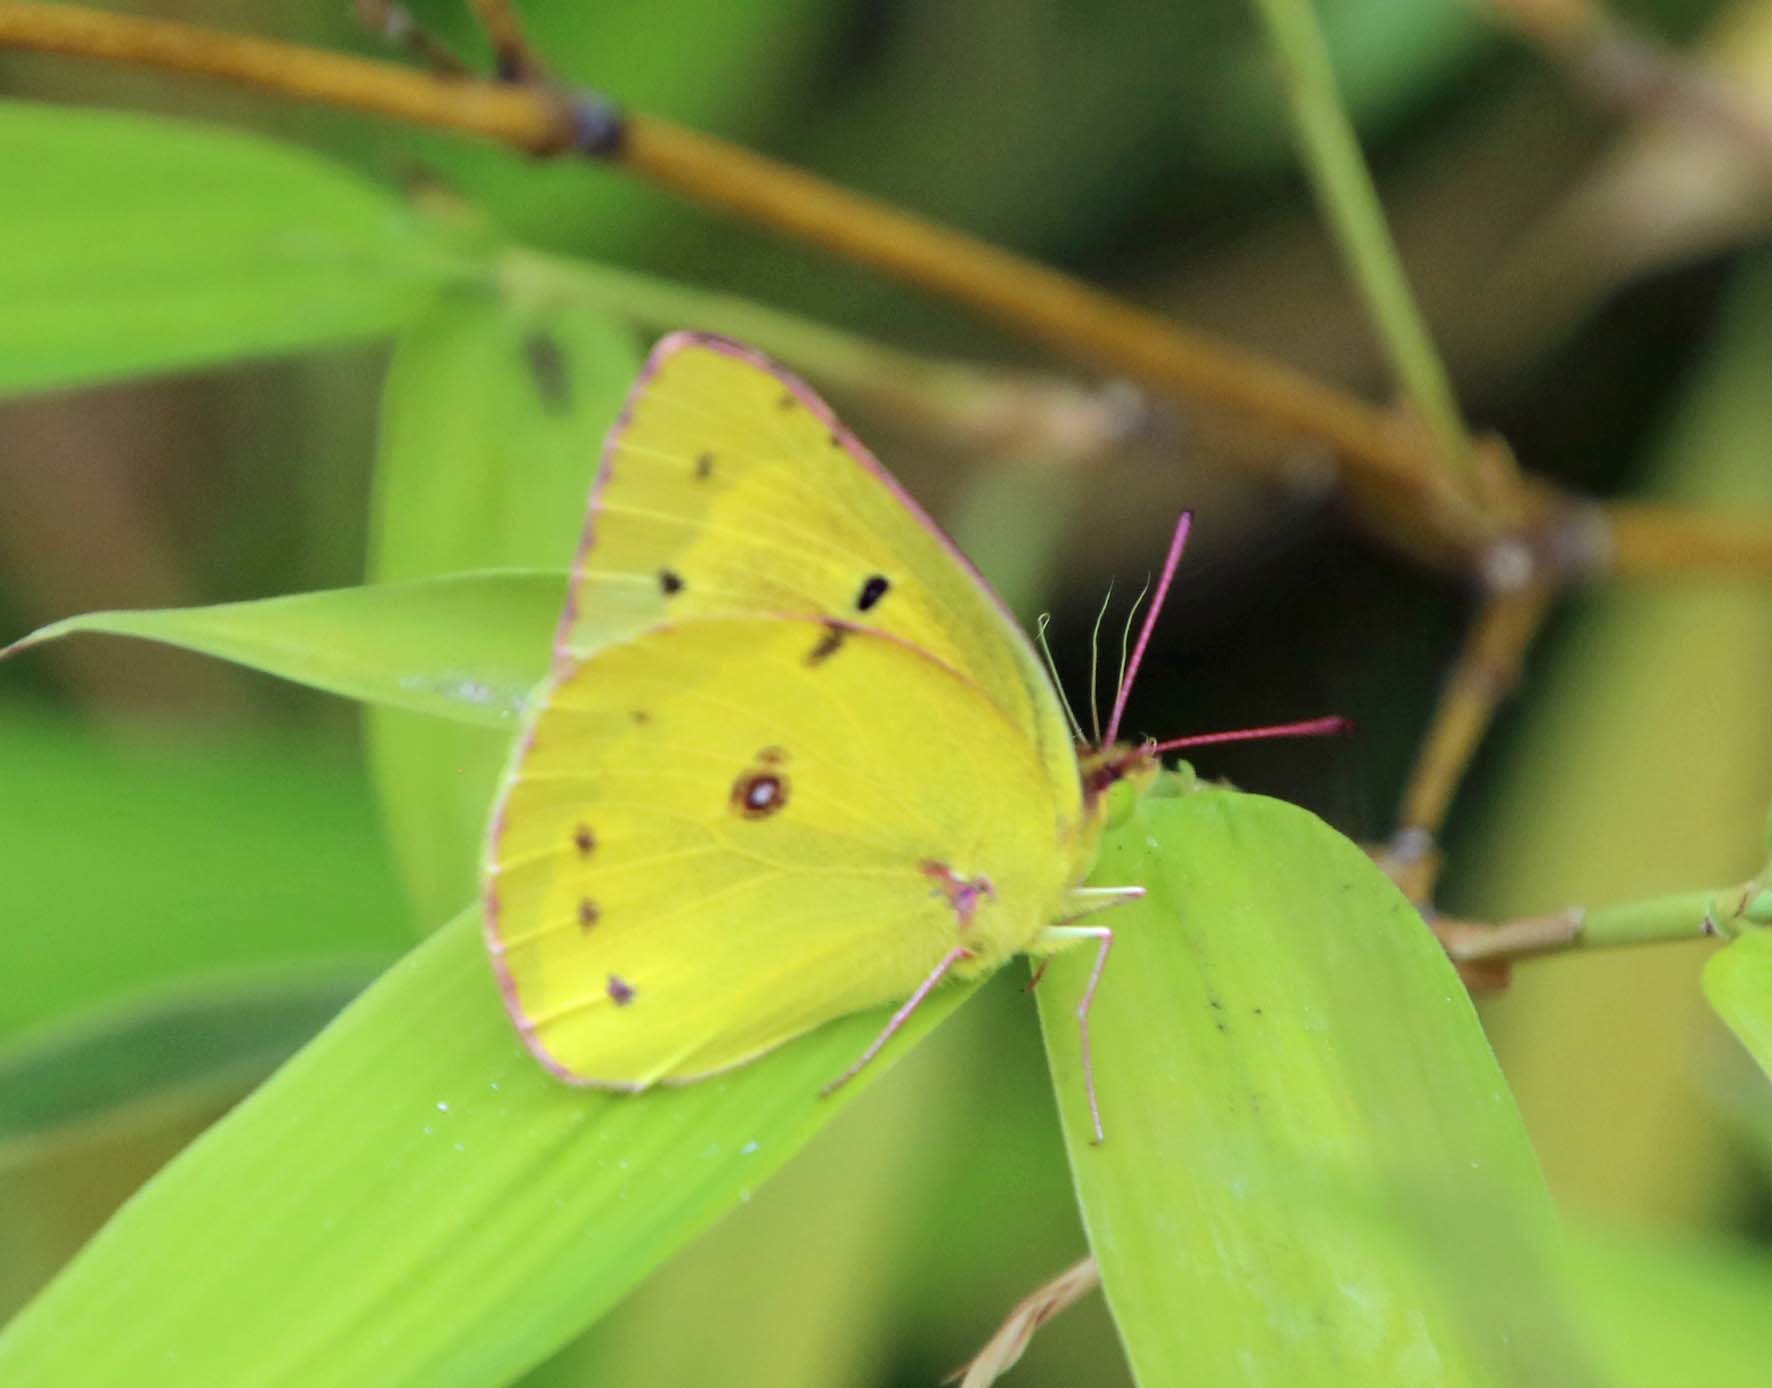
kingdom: Animalia
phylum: Arthropoda
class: Insecta
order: Lepidoptera
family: Pieridae
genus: Colias
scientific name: Colias eurytheme
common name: Alfalfa butterfly
